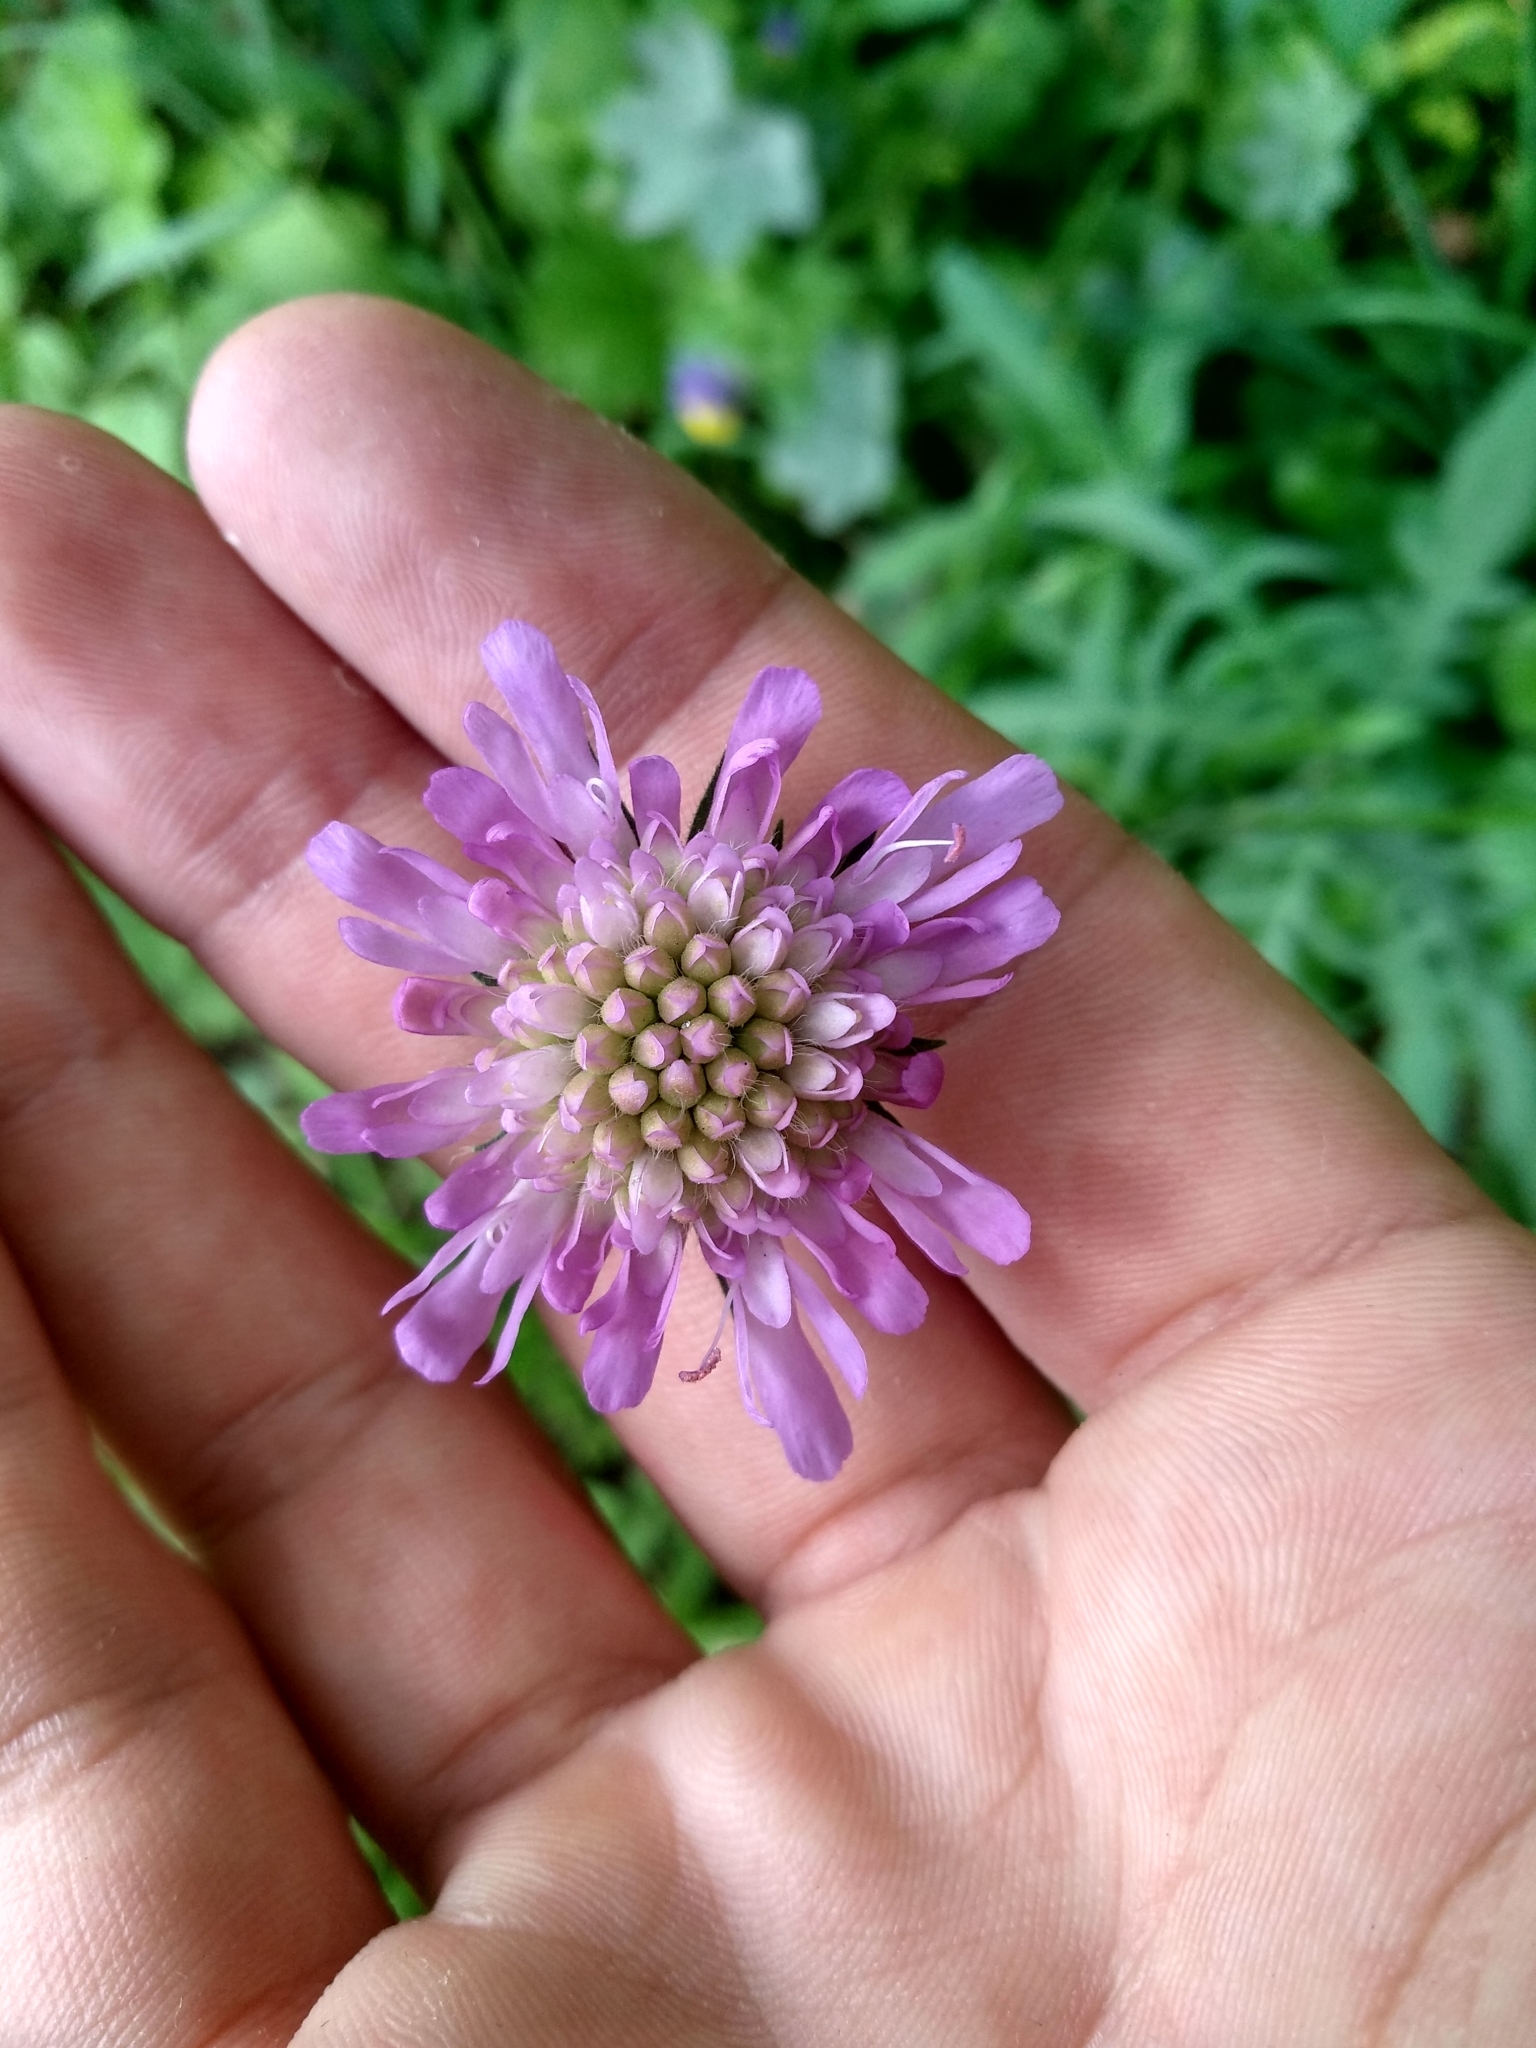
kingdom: Plantae
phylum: Tracheophyta
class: Magnoliopsida
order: Dipsacales
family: Caprifoliaceae
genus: Knautia
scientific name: Knautia arvensis
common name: Field scabiosa
